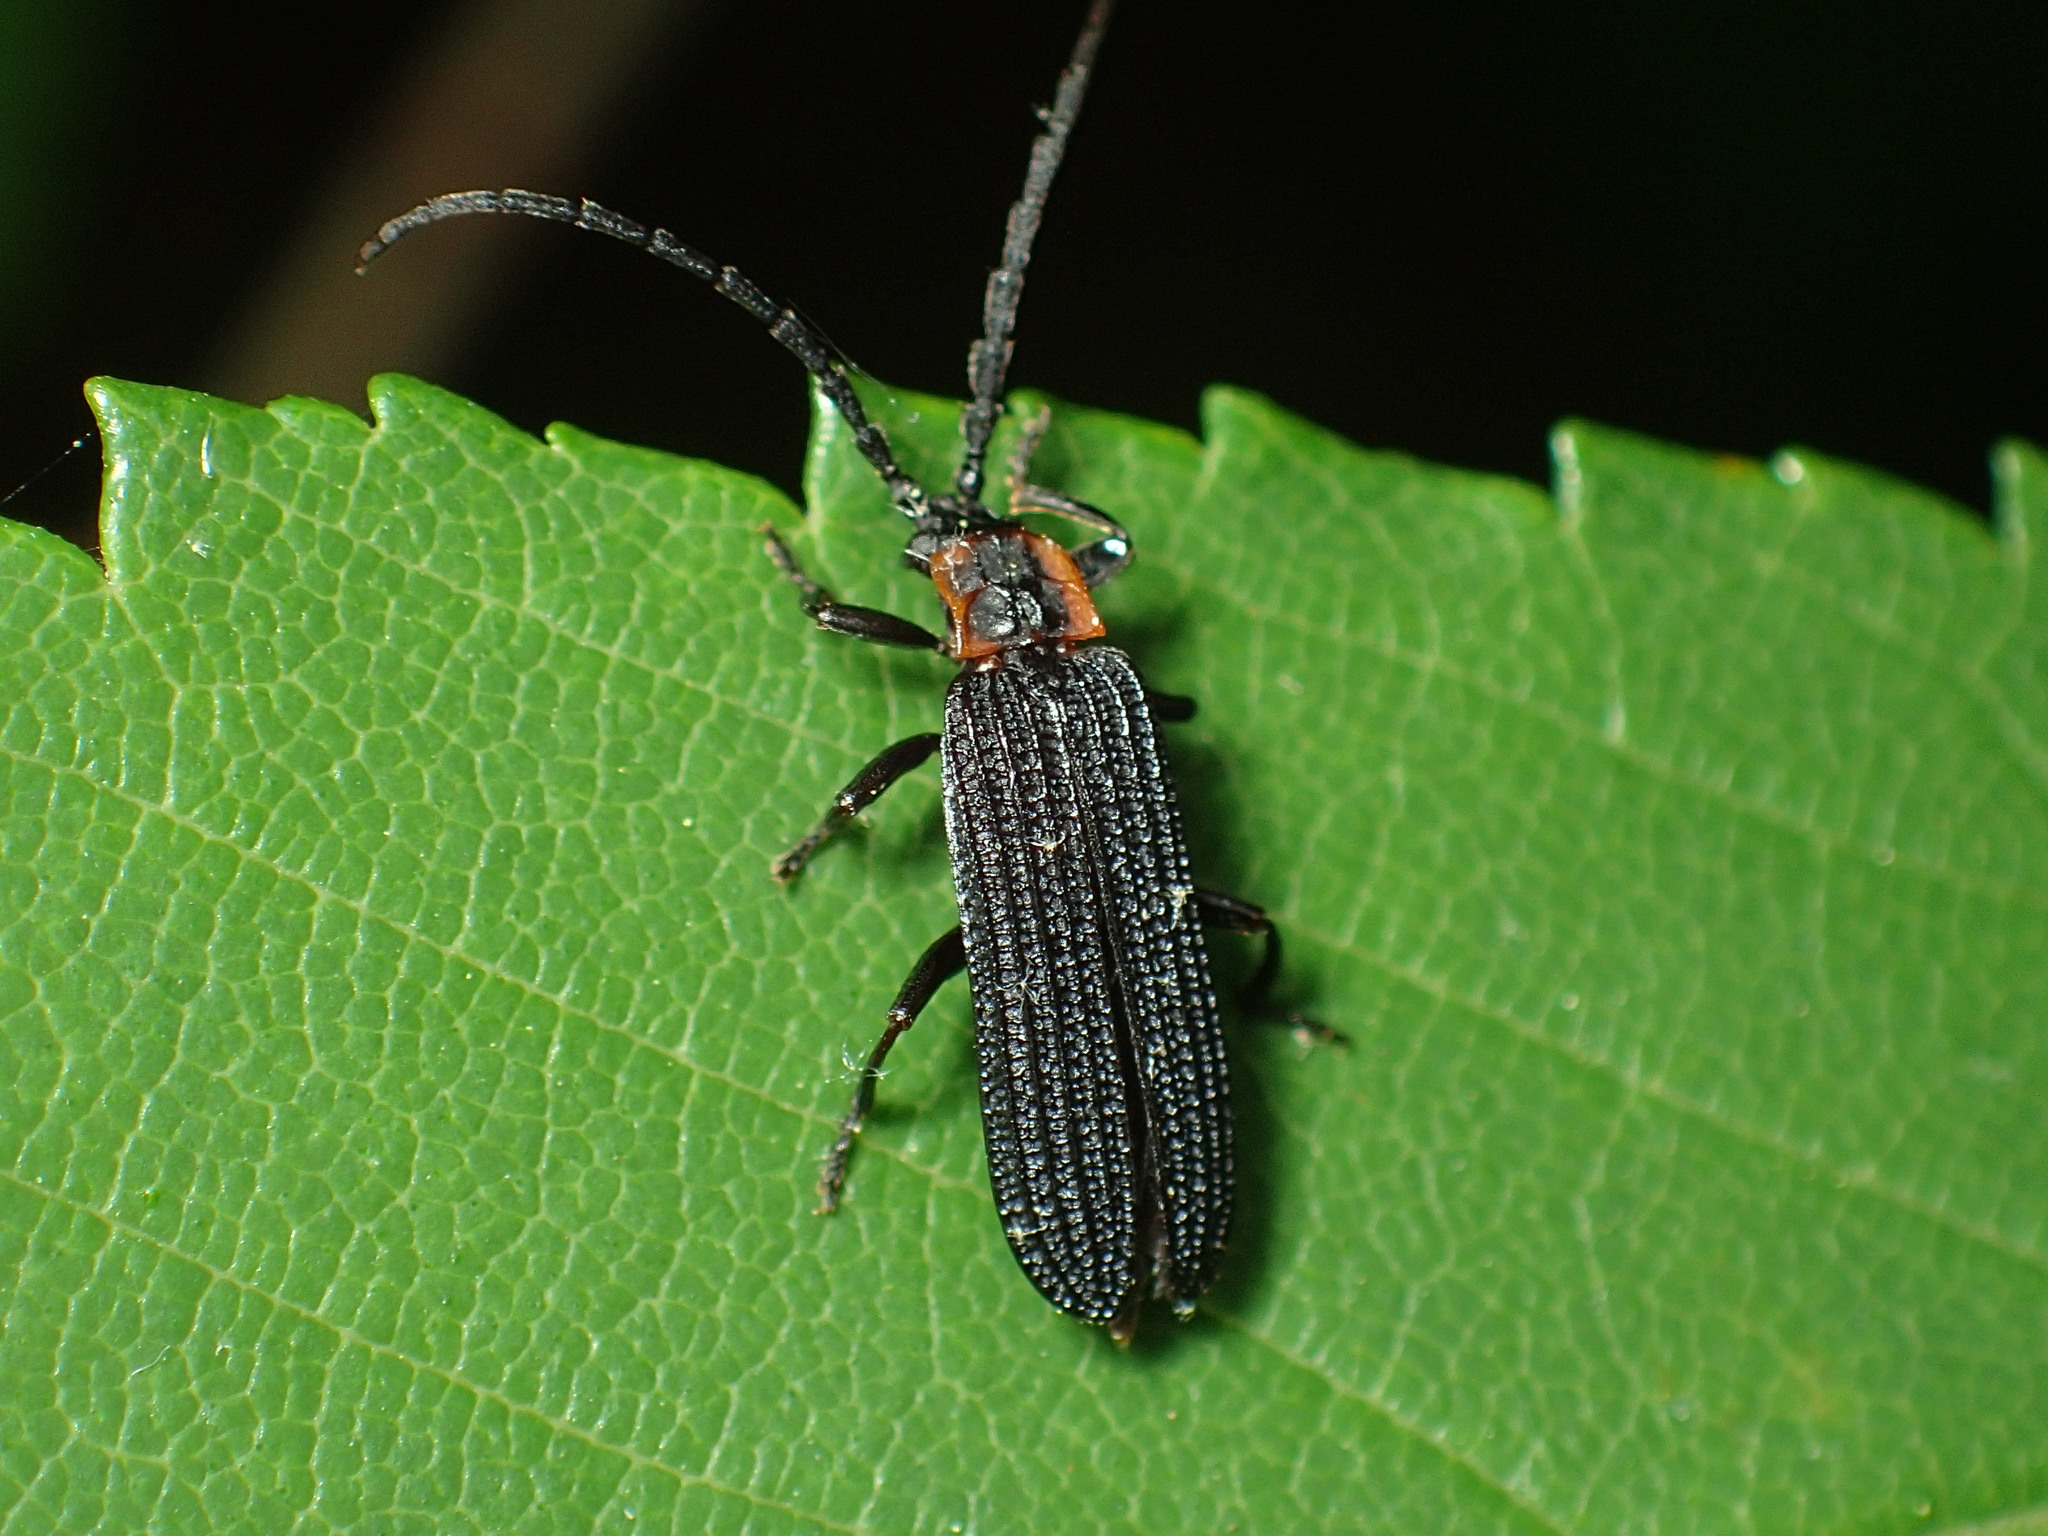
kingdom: Animalia
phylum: Arthropoda
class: Insecta
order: Coleoptera
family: Lycidae
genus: Erotides
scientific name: Erotides sculptilis
